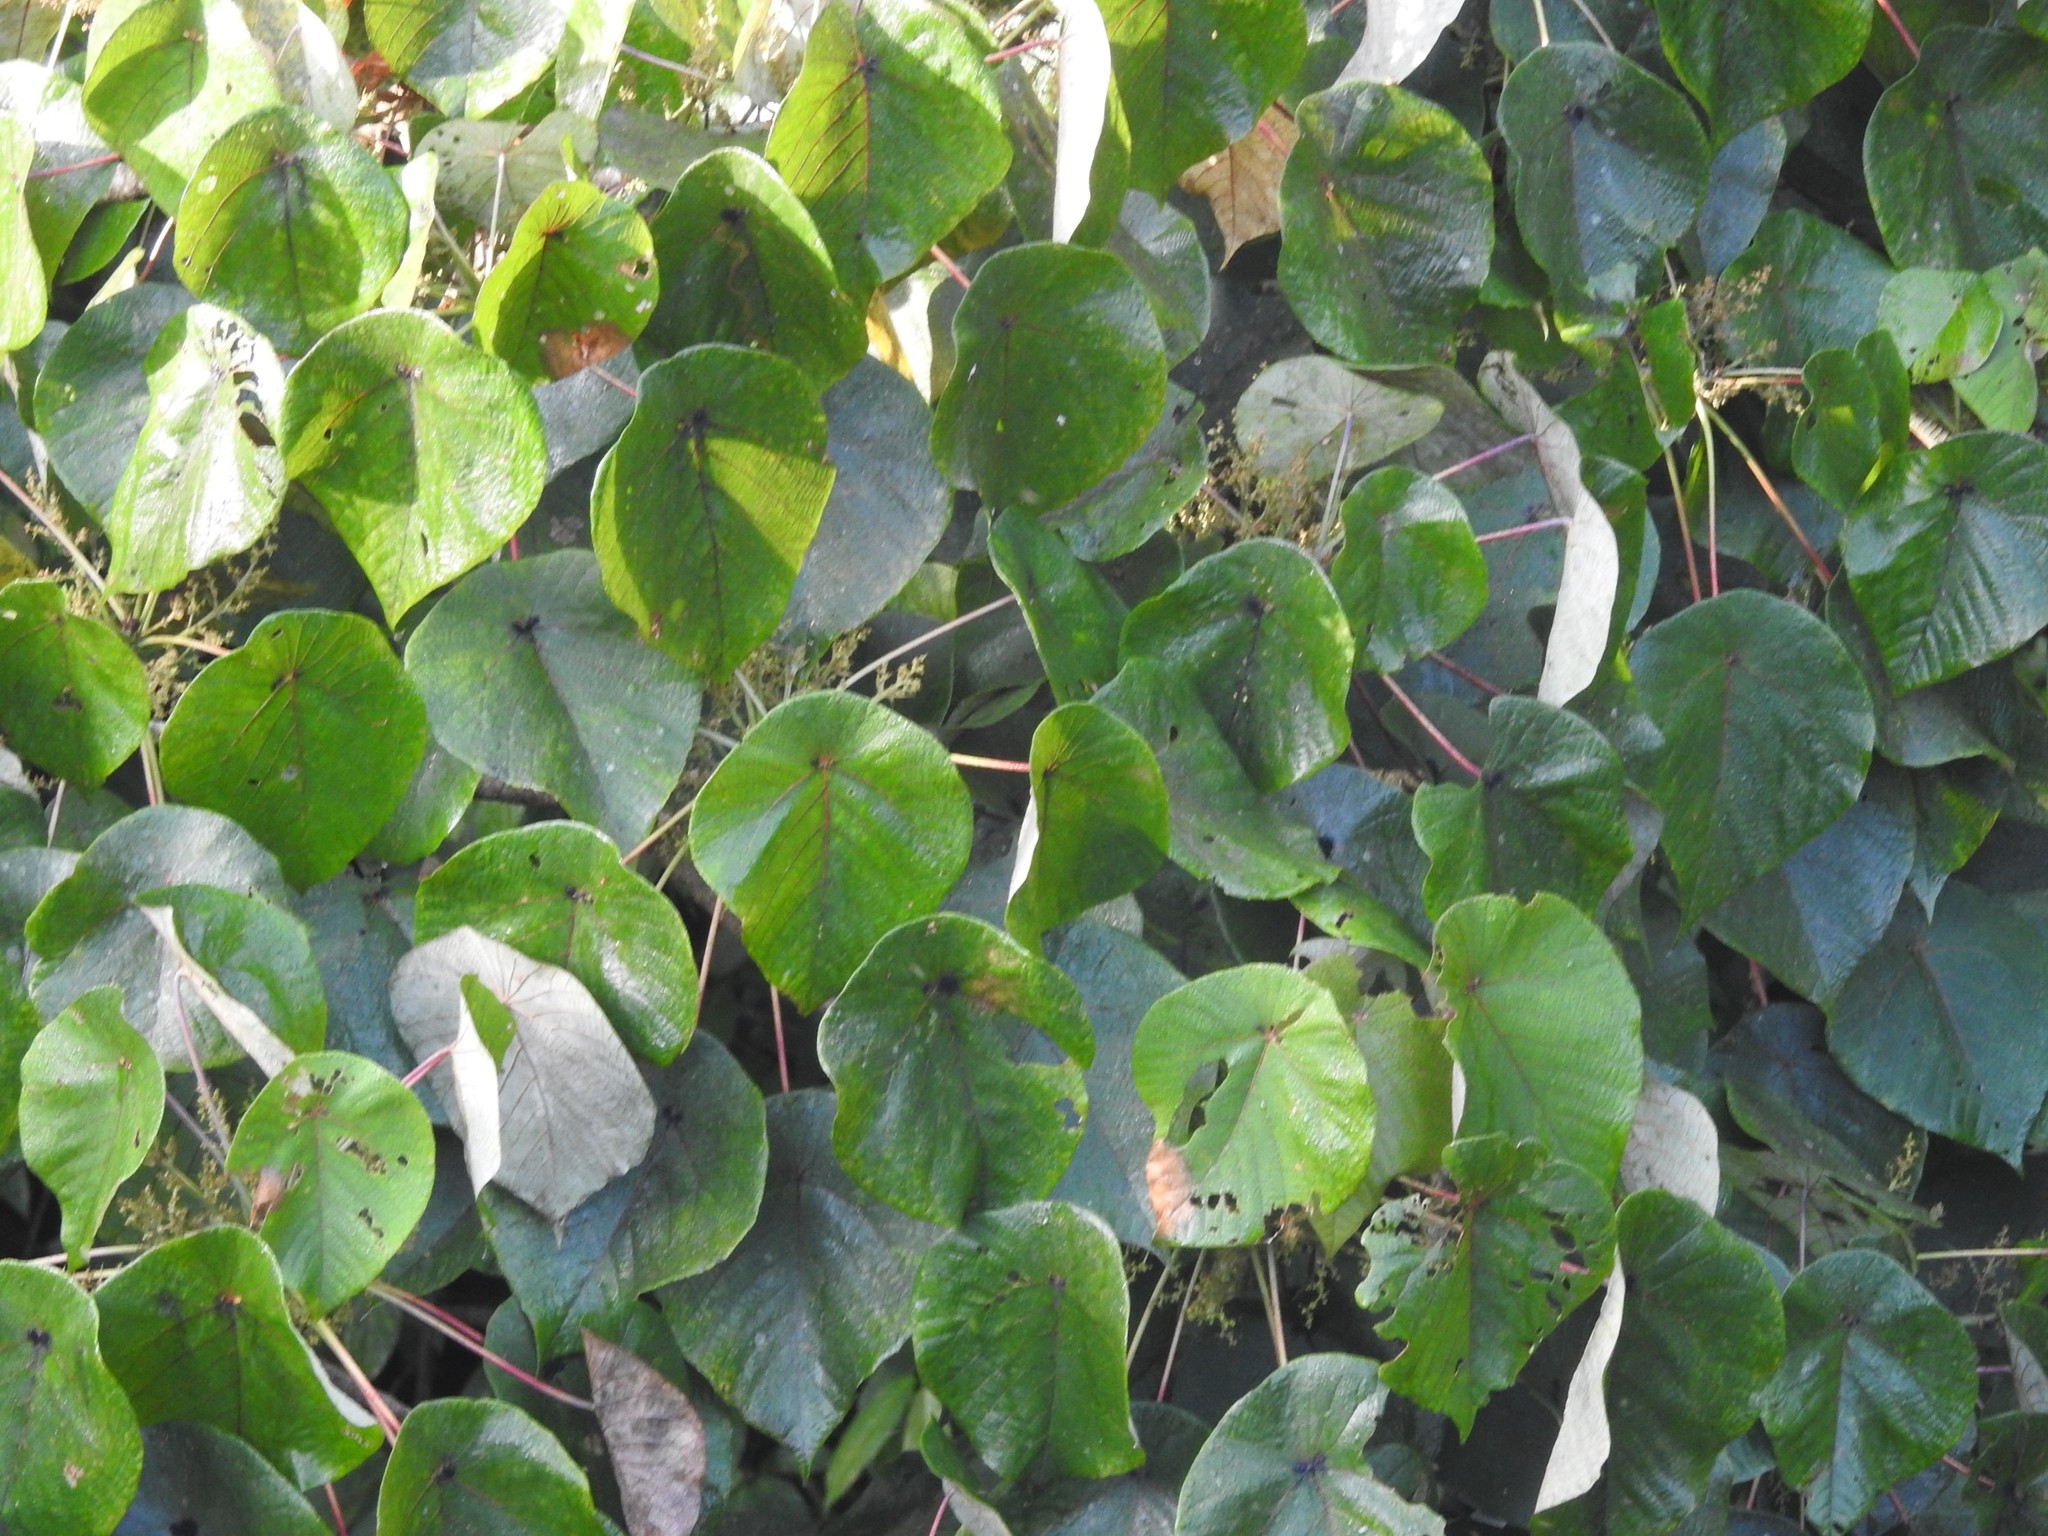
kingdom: Plantae
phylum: Tracheophyta
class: Magnoliopsida
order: Malpighiales
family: Euphorbiaceae
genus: Macaranga
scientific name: Macaranga peltata
